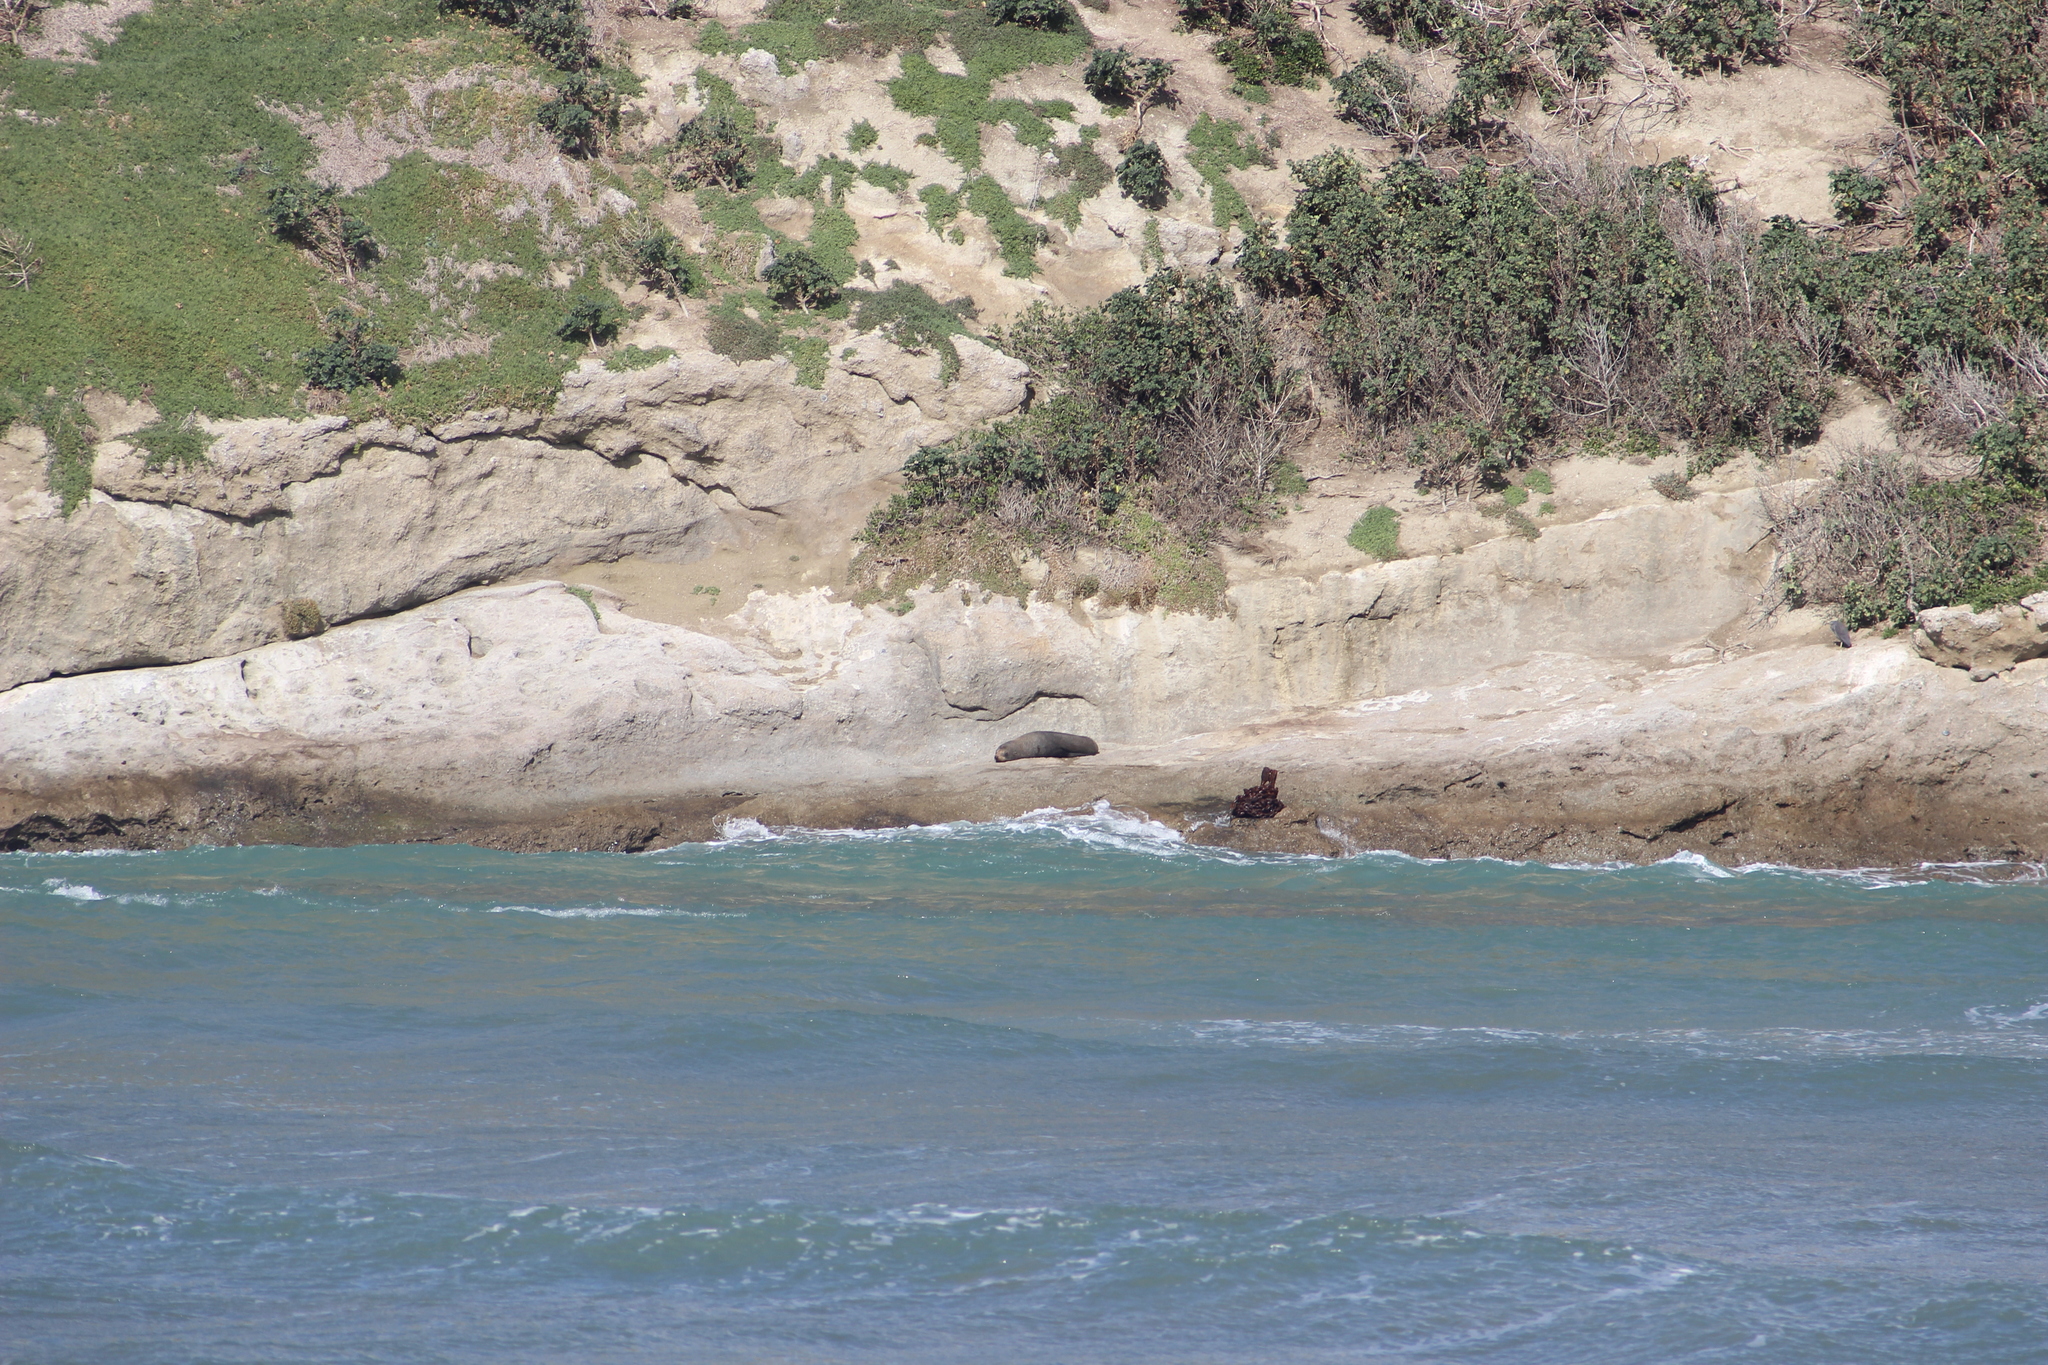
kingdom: Animalia
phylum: Chordata
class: Mammalia
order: Carnivora
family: Otariidae
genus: Arctocephalus
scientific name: Arctocephalus forsteri
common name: New zealand fur seal
